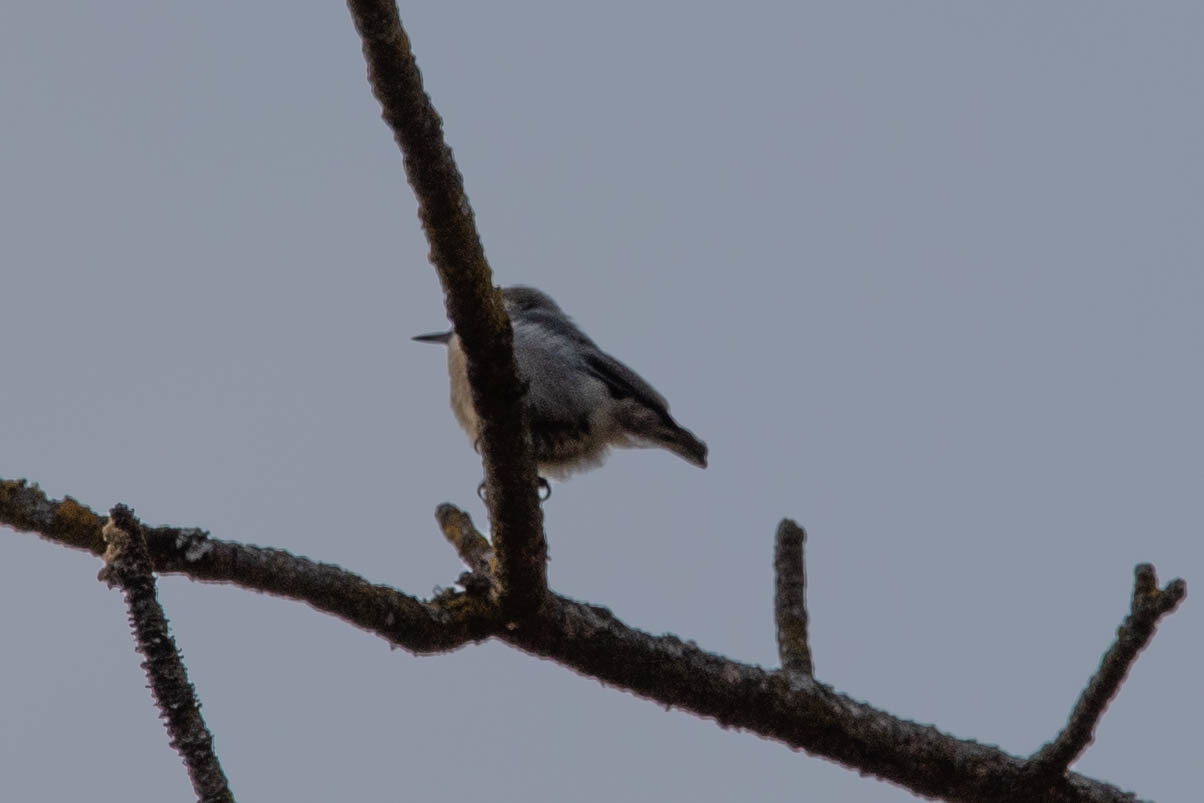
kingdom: Animalia
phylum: Chordata
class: Aves
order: Passeriformes
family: Sittidae
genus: Sitta
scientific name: Sitta pygmaea
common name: Pygmy nuthatch
